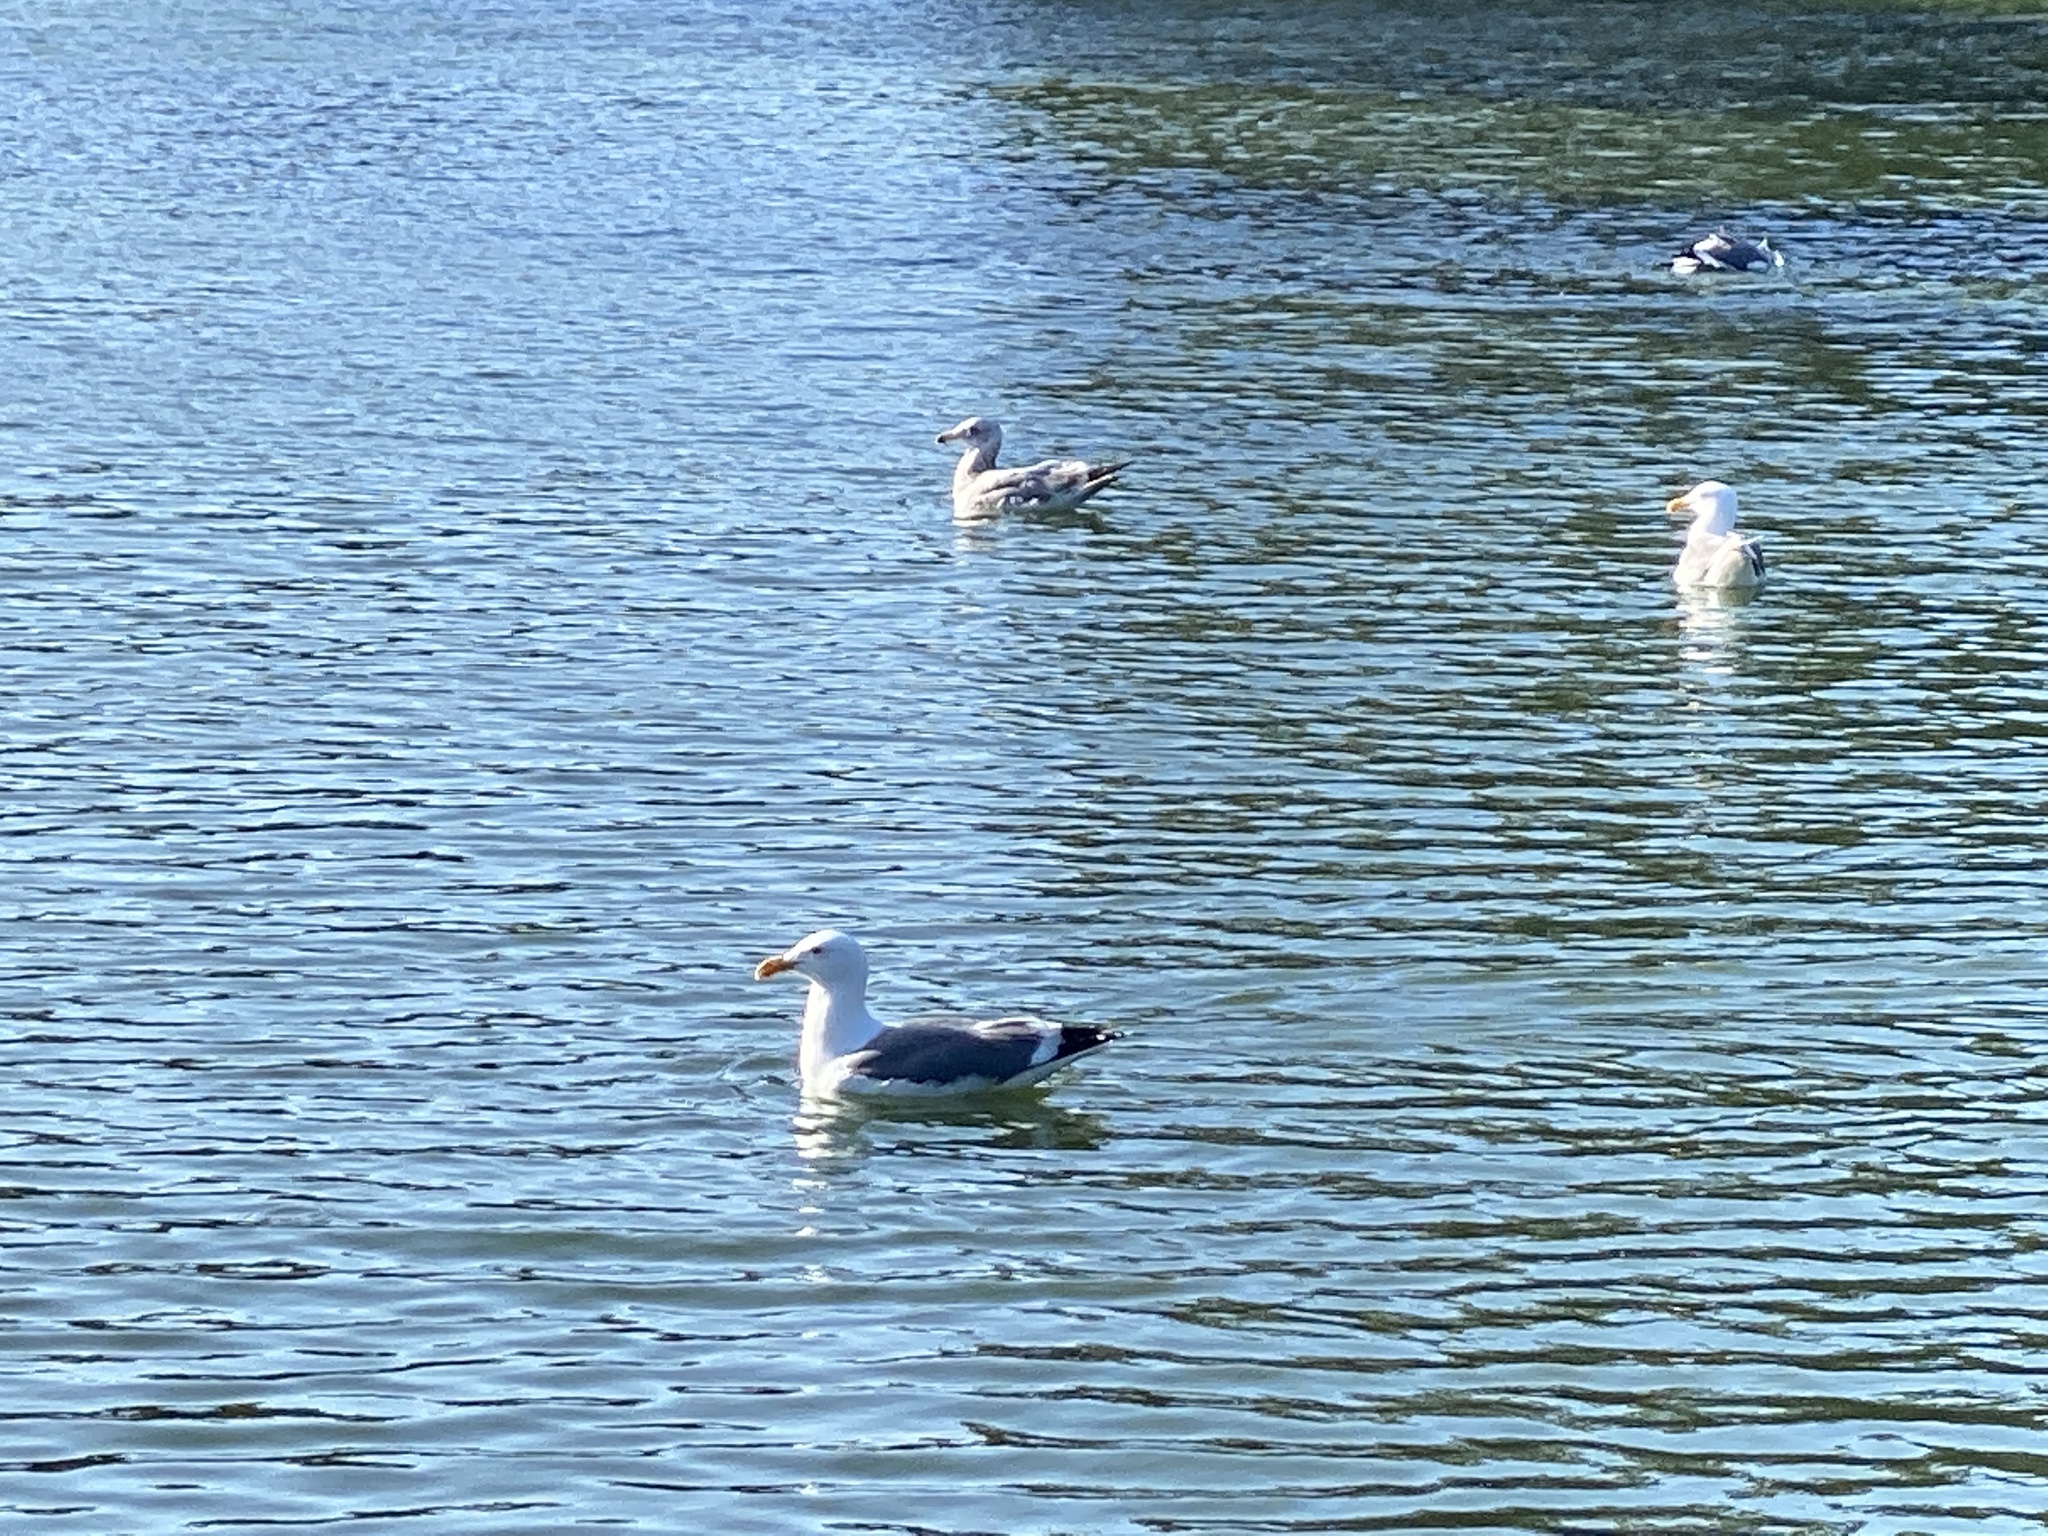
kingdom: Animalia
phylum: Chordata
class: Aves
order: Charadriiformes
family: Laridae
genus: Larus
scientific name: Larus occidentalis
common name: Western gull
